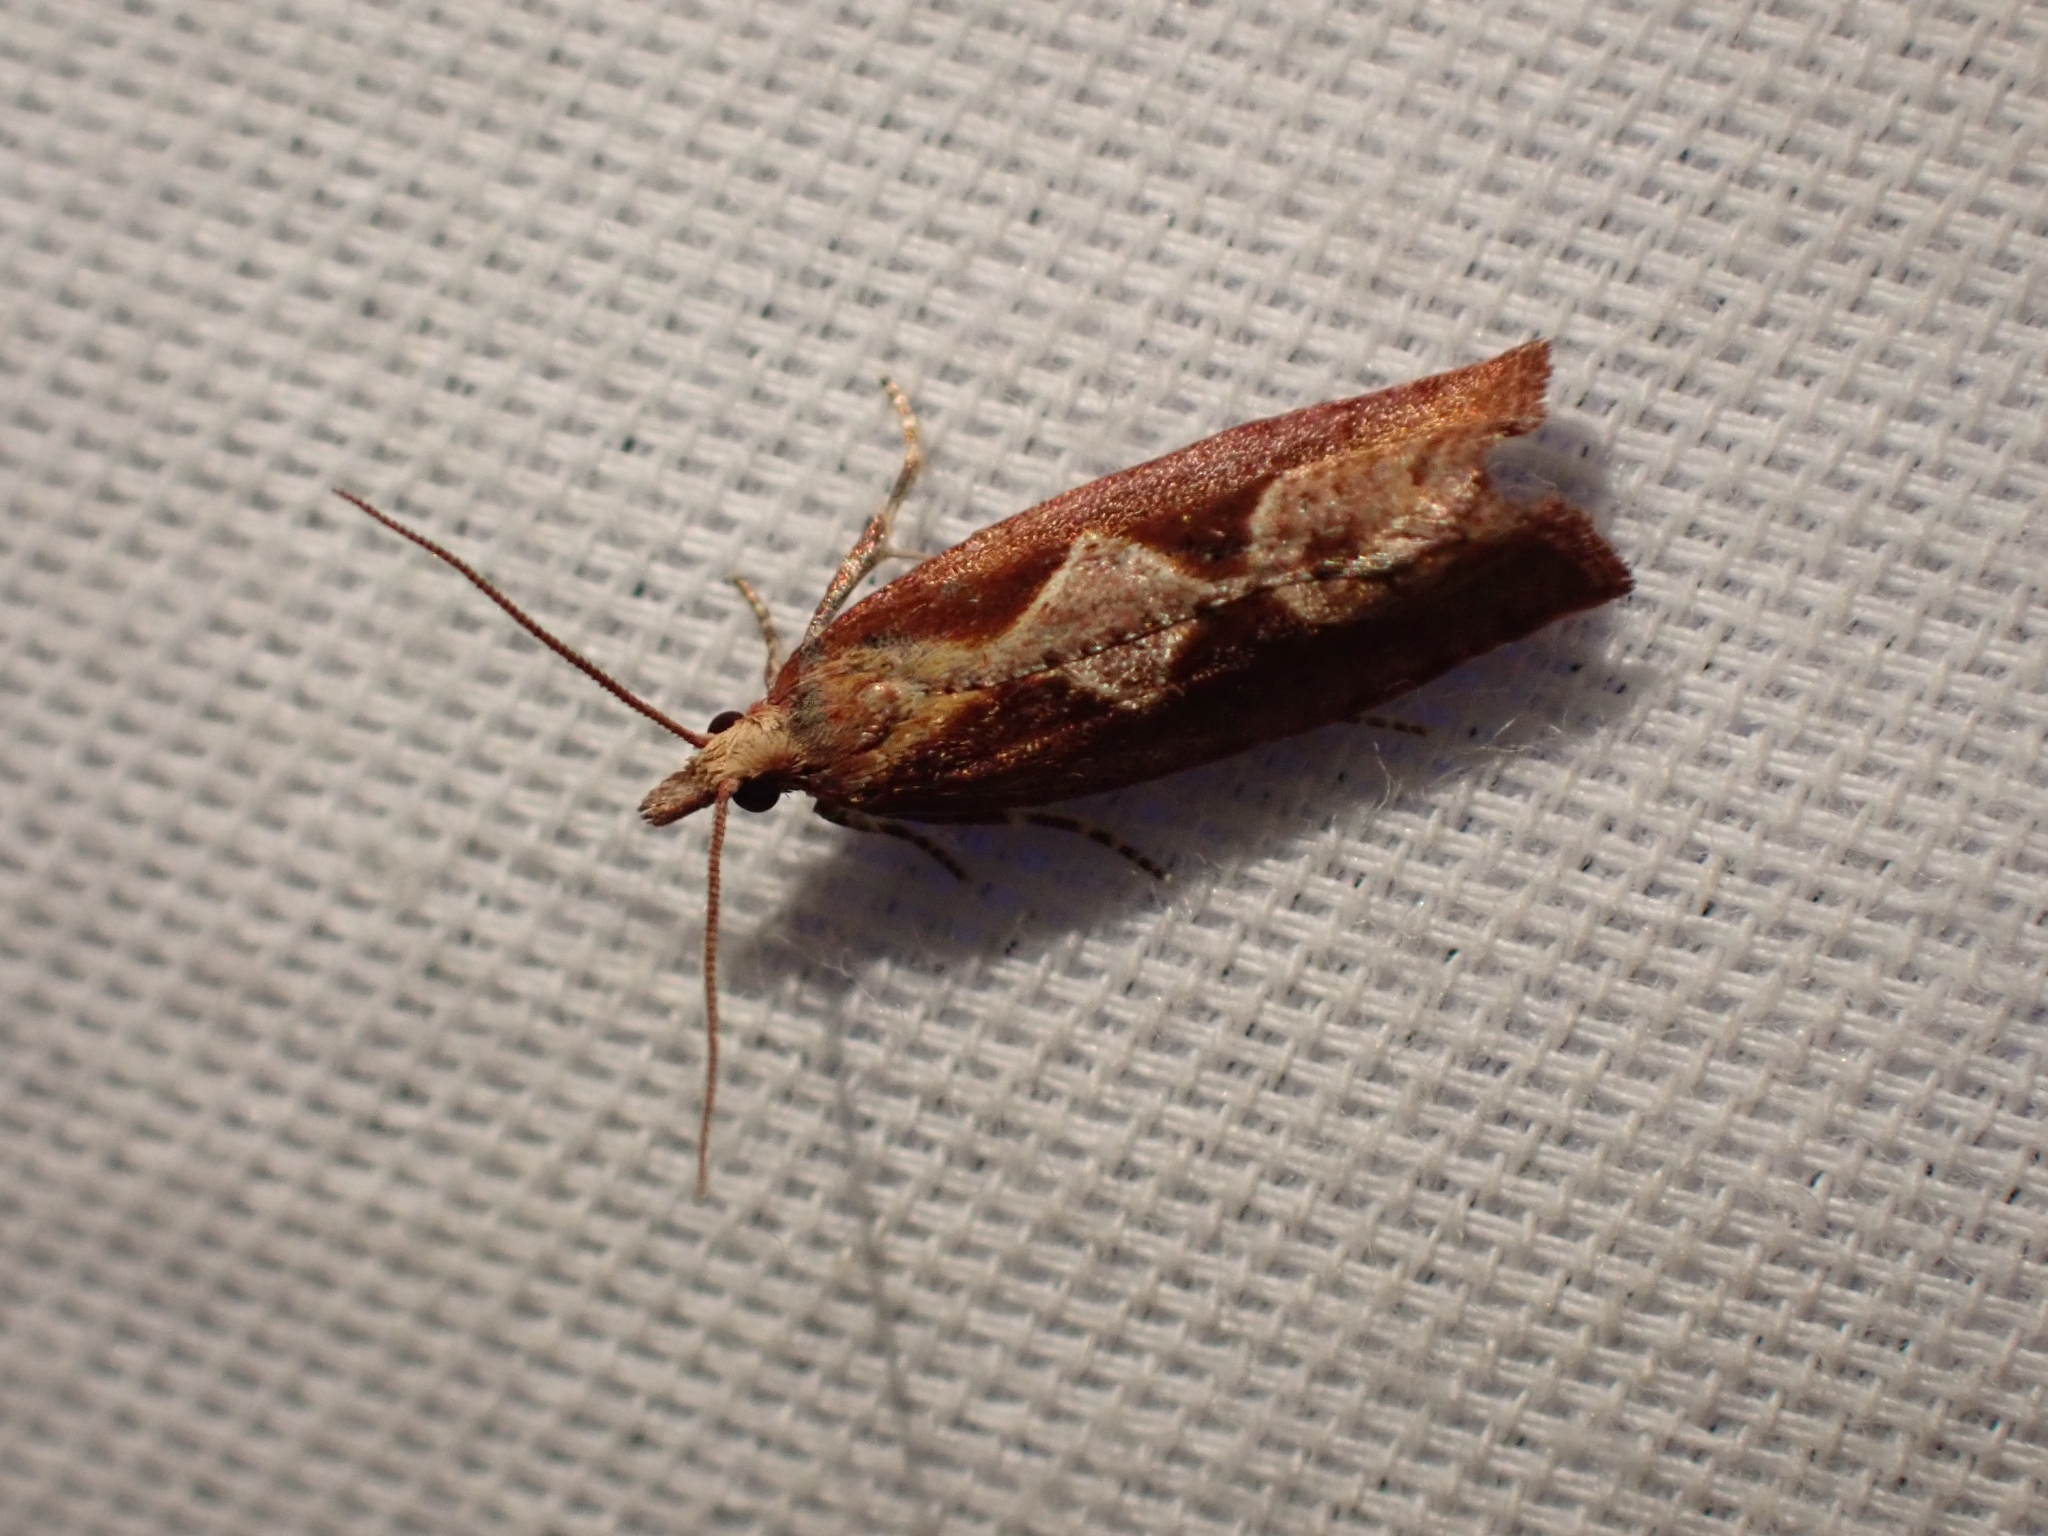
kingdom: Animalia
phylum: Arthropoda
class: Insecta
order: Lepidoptera
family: Tortricidae
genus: Epinotia
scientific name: Epinotia vagana
